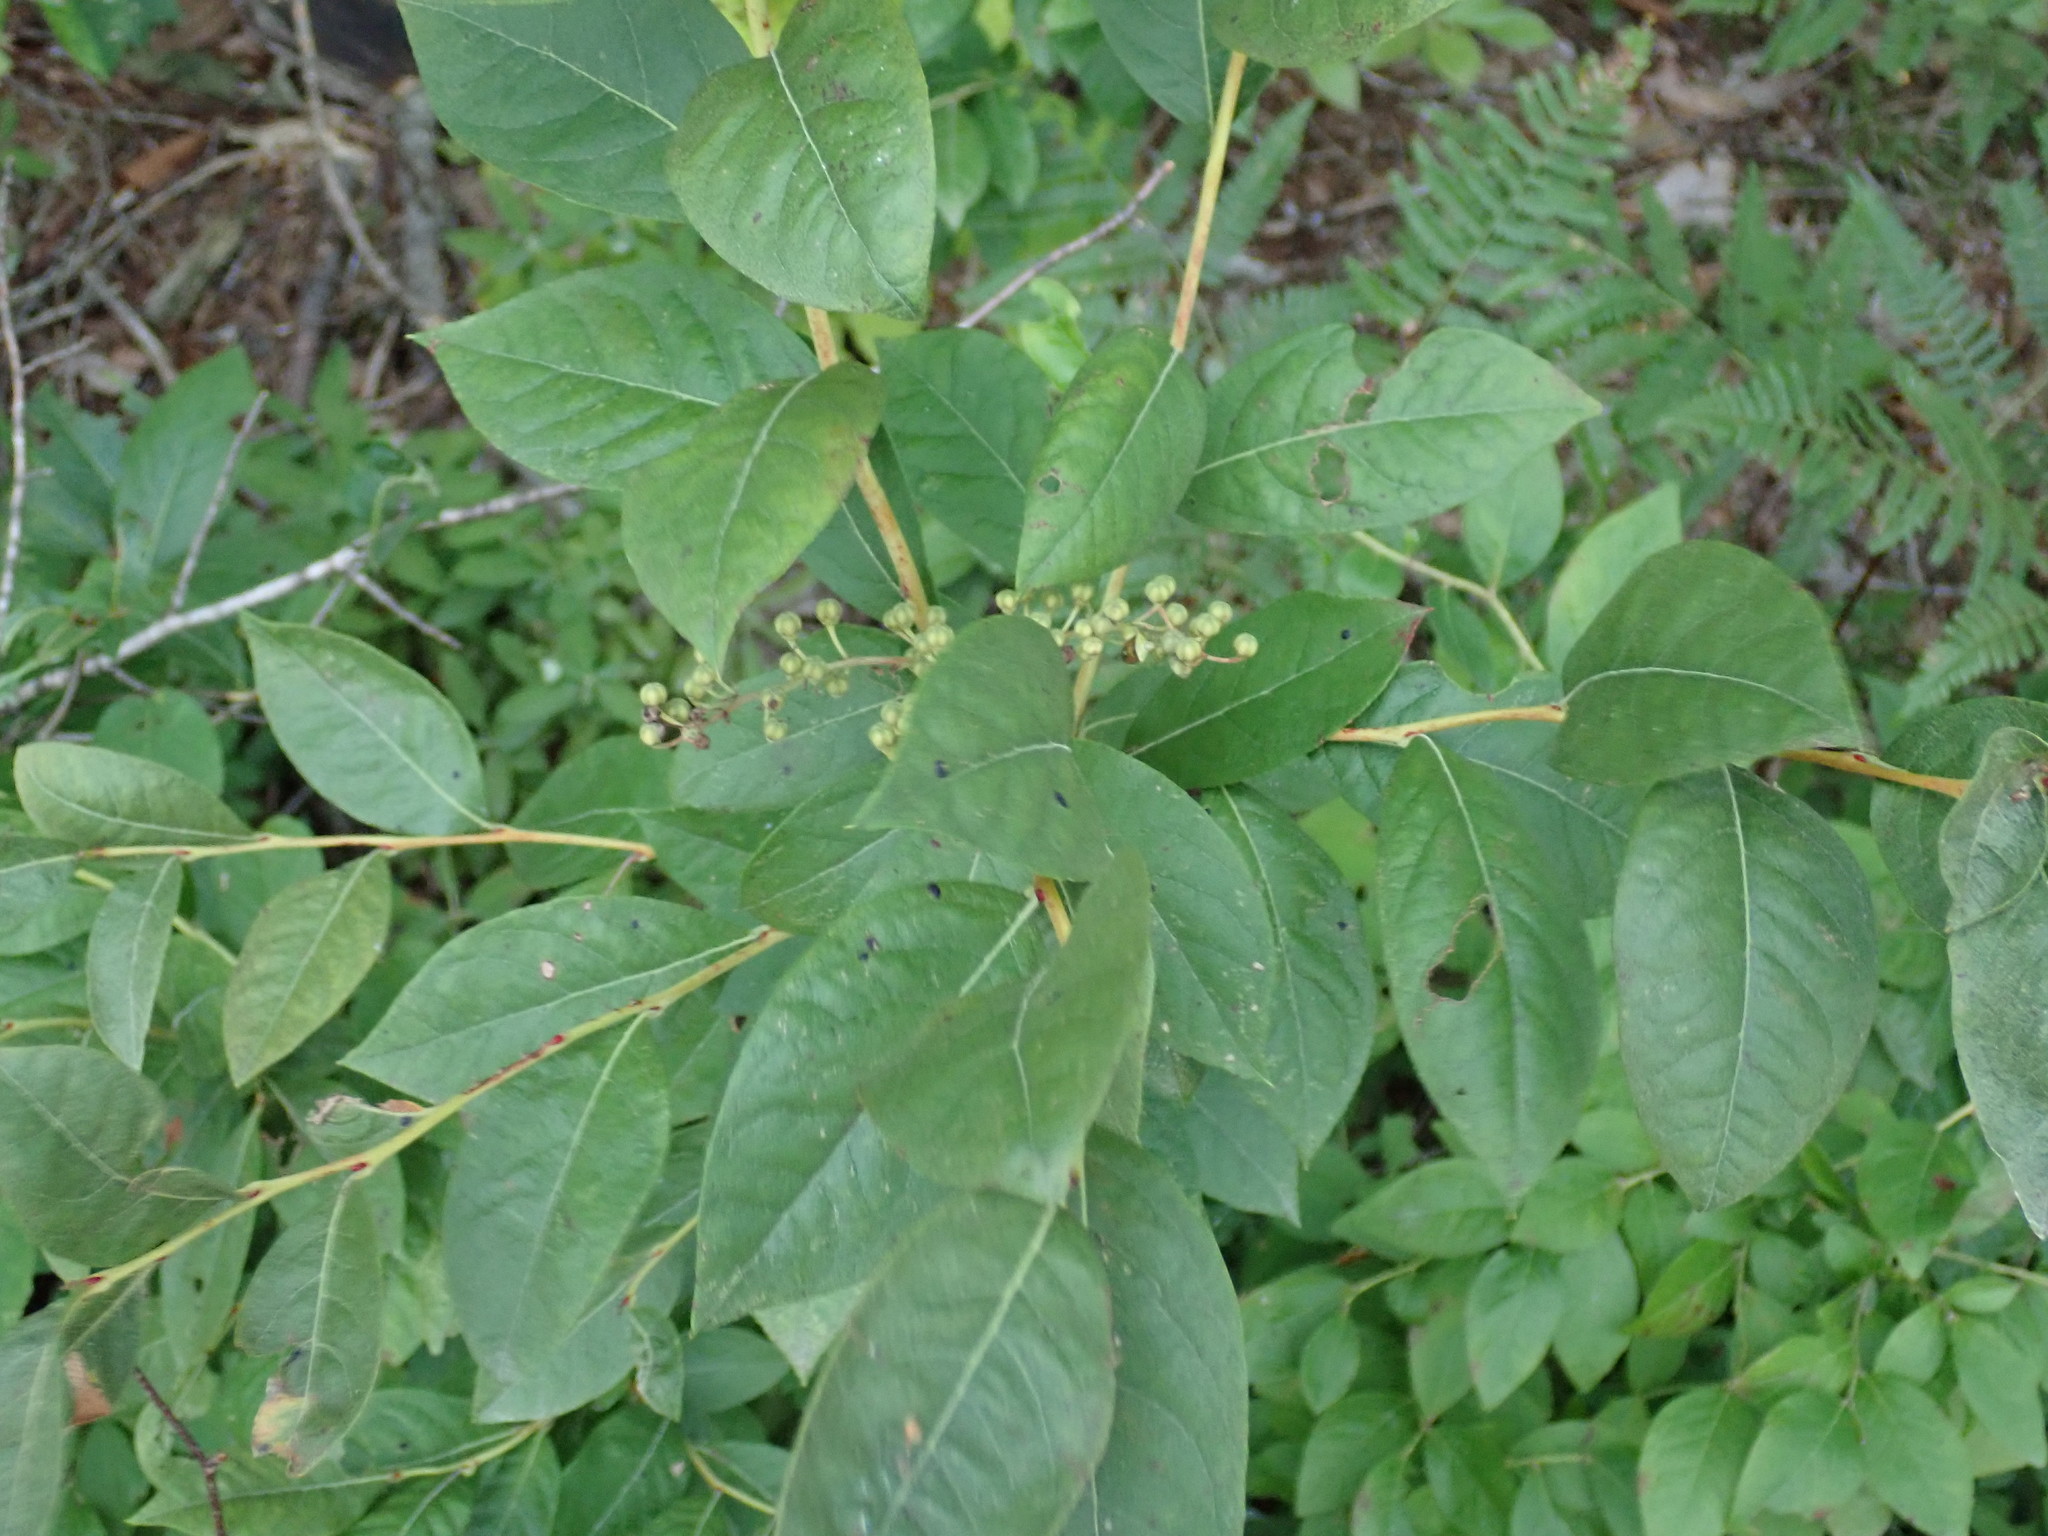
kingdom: Plantae
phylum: Tracheophyta
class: Magnoliopsida
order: Ericales
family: Ericaceae
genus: Lyonia
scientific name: Lyonia ligustrina
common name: Maleberry
